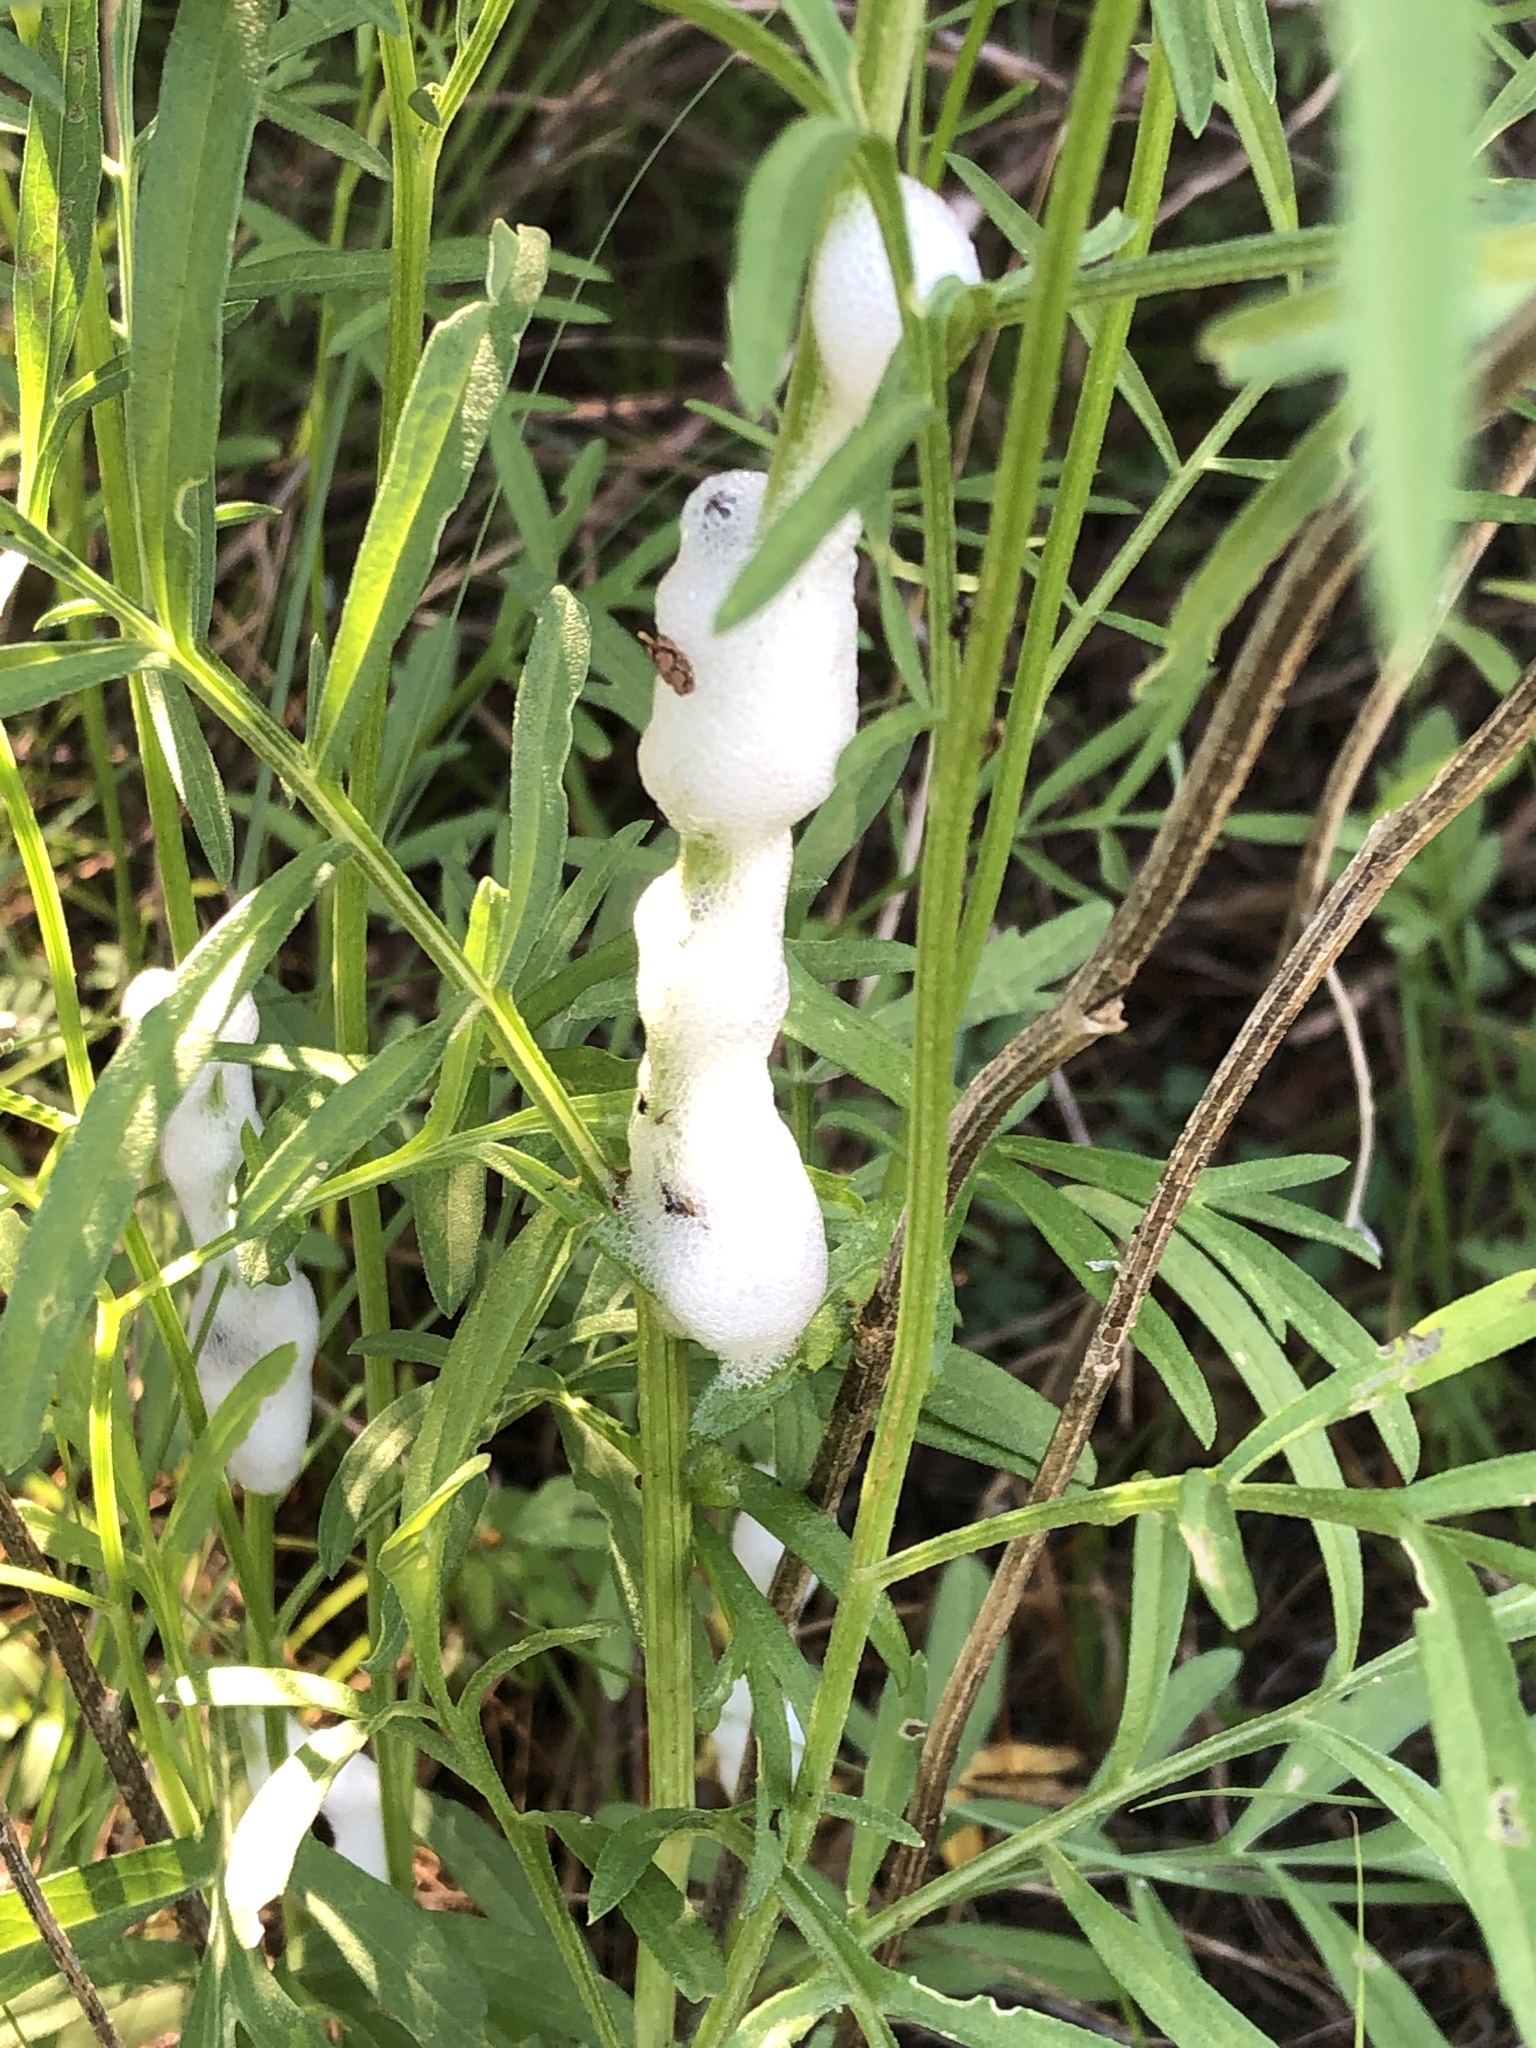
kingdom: Animalia
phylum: Arthropoda
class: Insecta
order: Hemiptera
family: Aphrophoridae
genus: Philaenus
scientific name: Philaenus spumarius
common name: Meadow spittlebug
